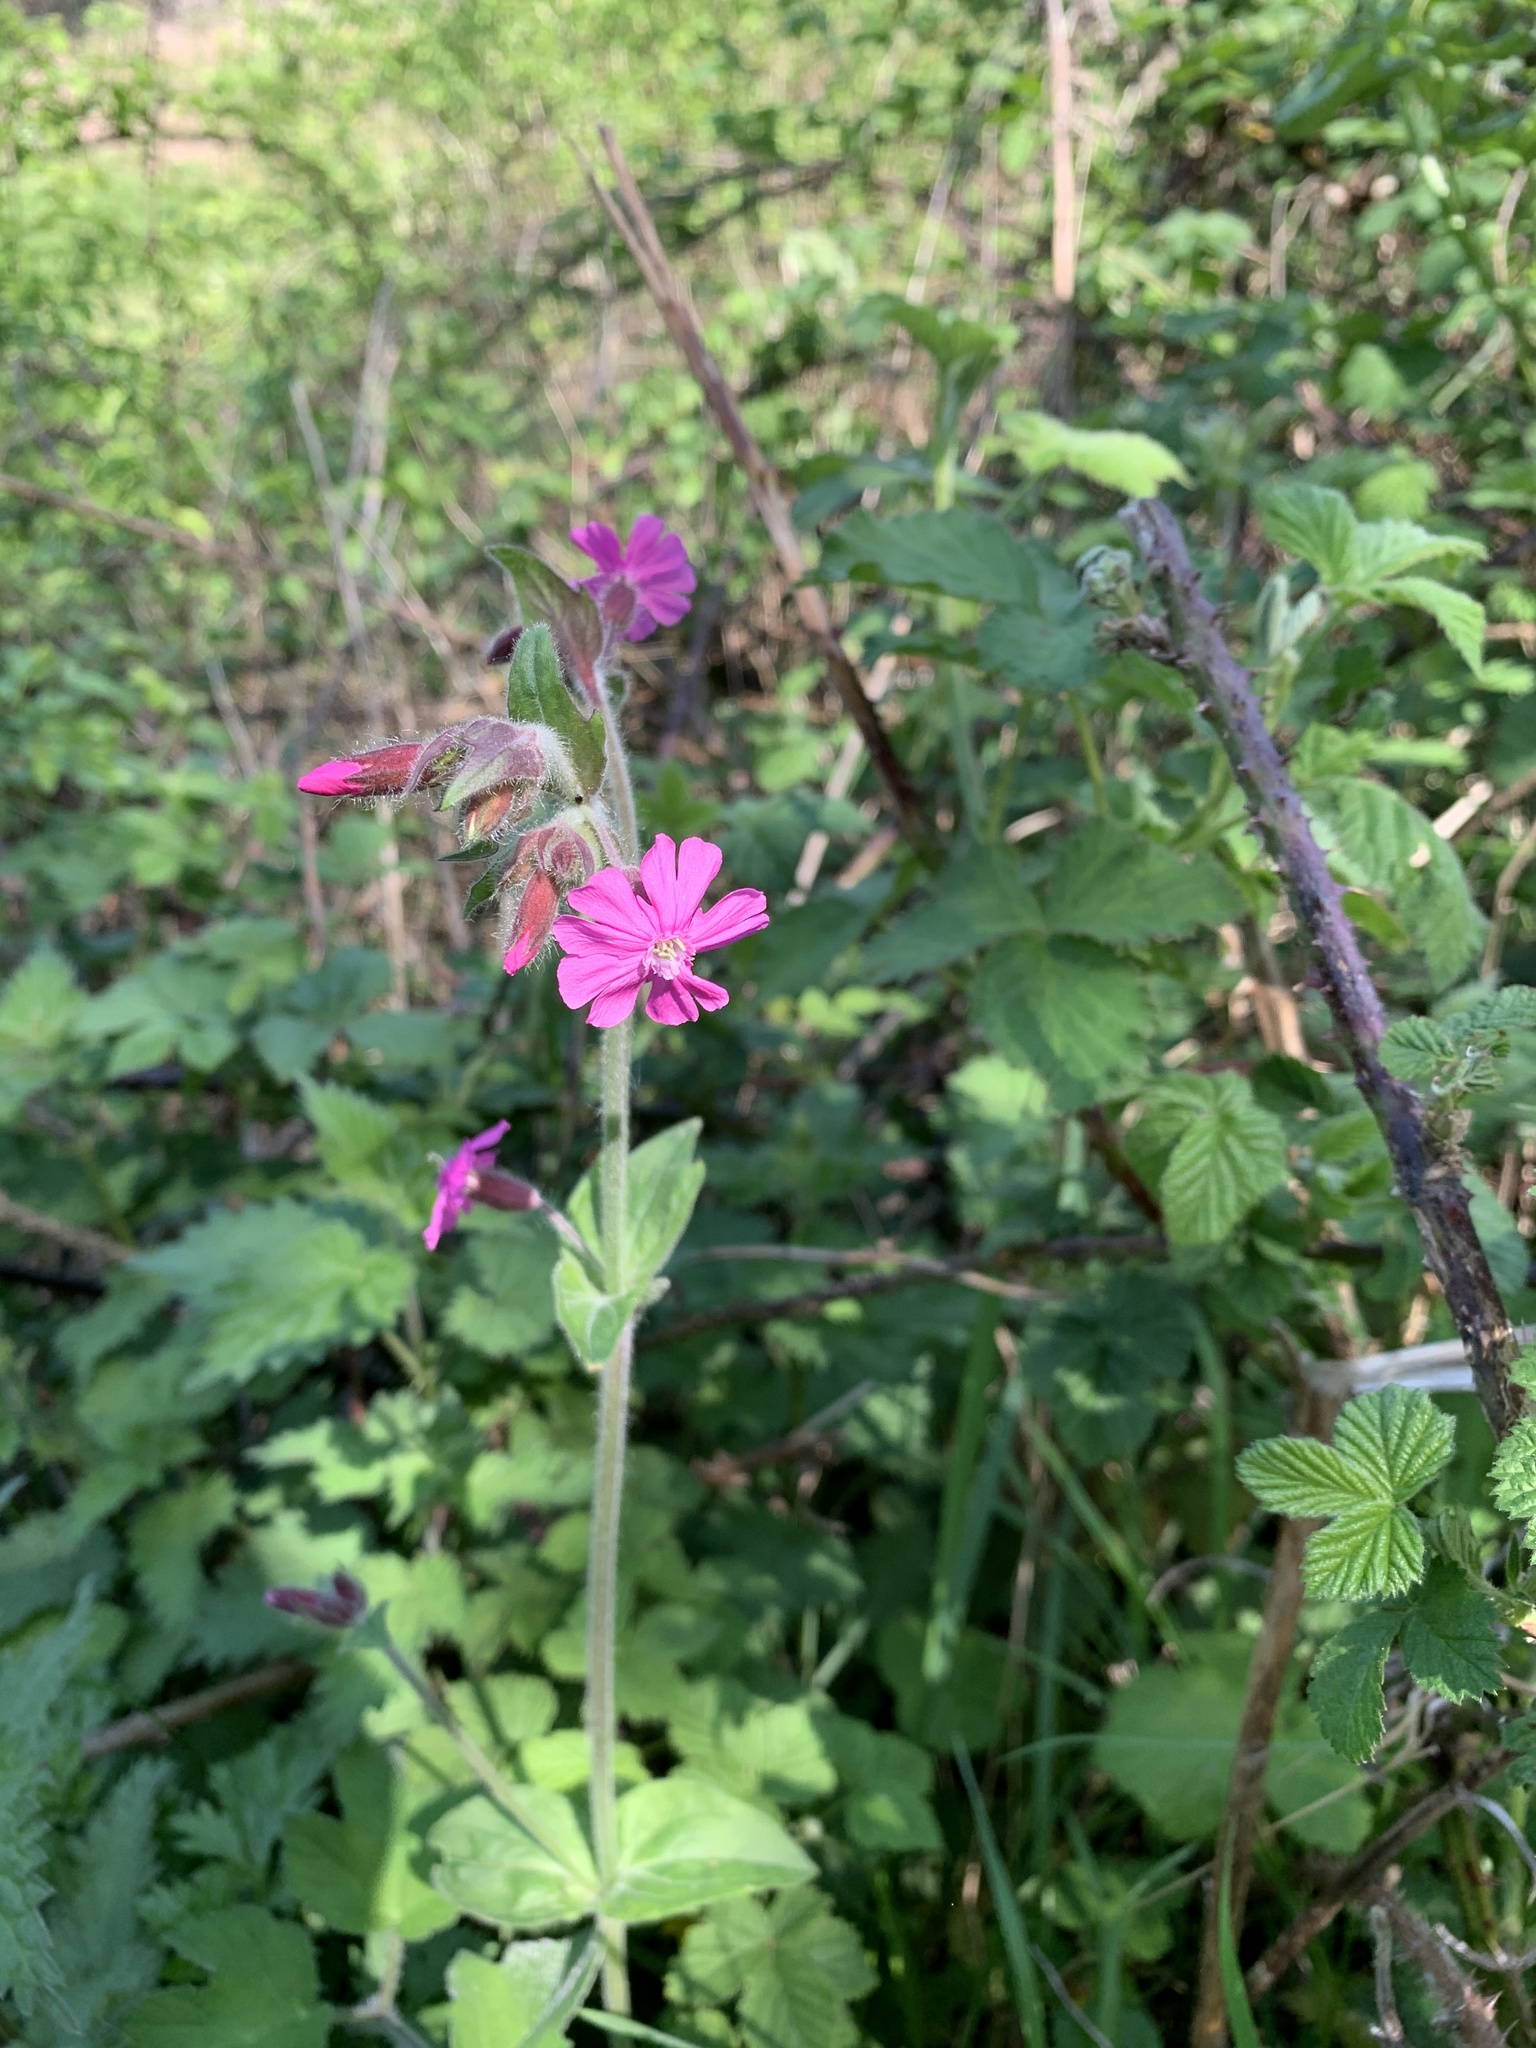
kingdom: Plantae
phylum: Tracheophyta
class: Magnoliopsida
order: Caryophyllales
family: Caryophyllaceae
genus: Silene
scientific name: Silene dioica
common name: Red campion
